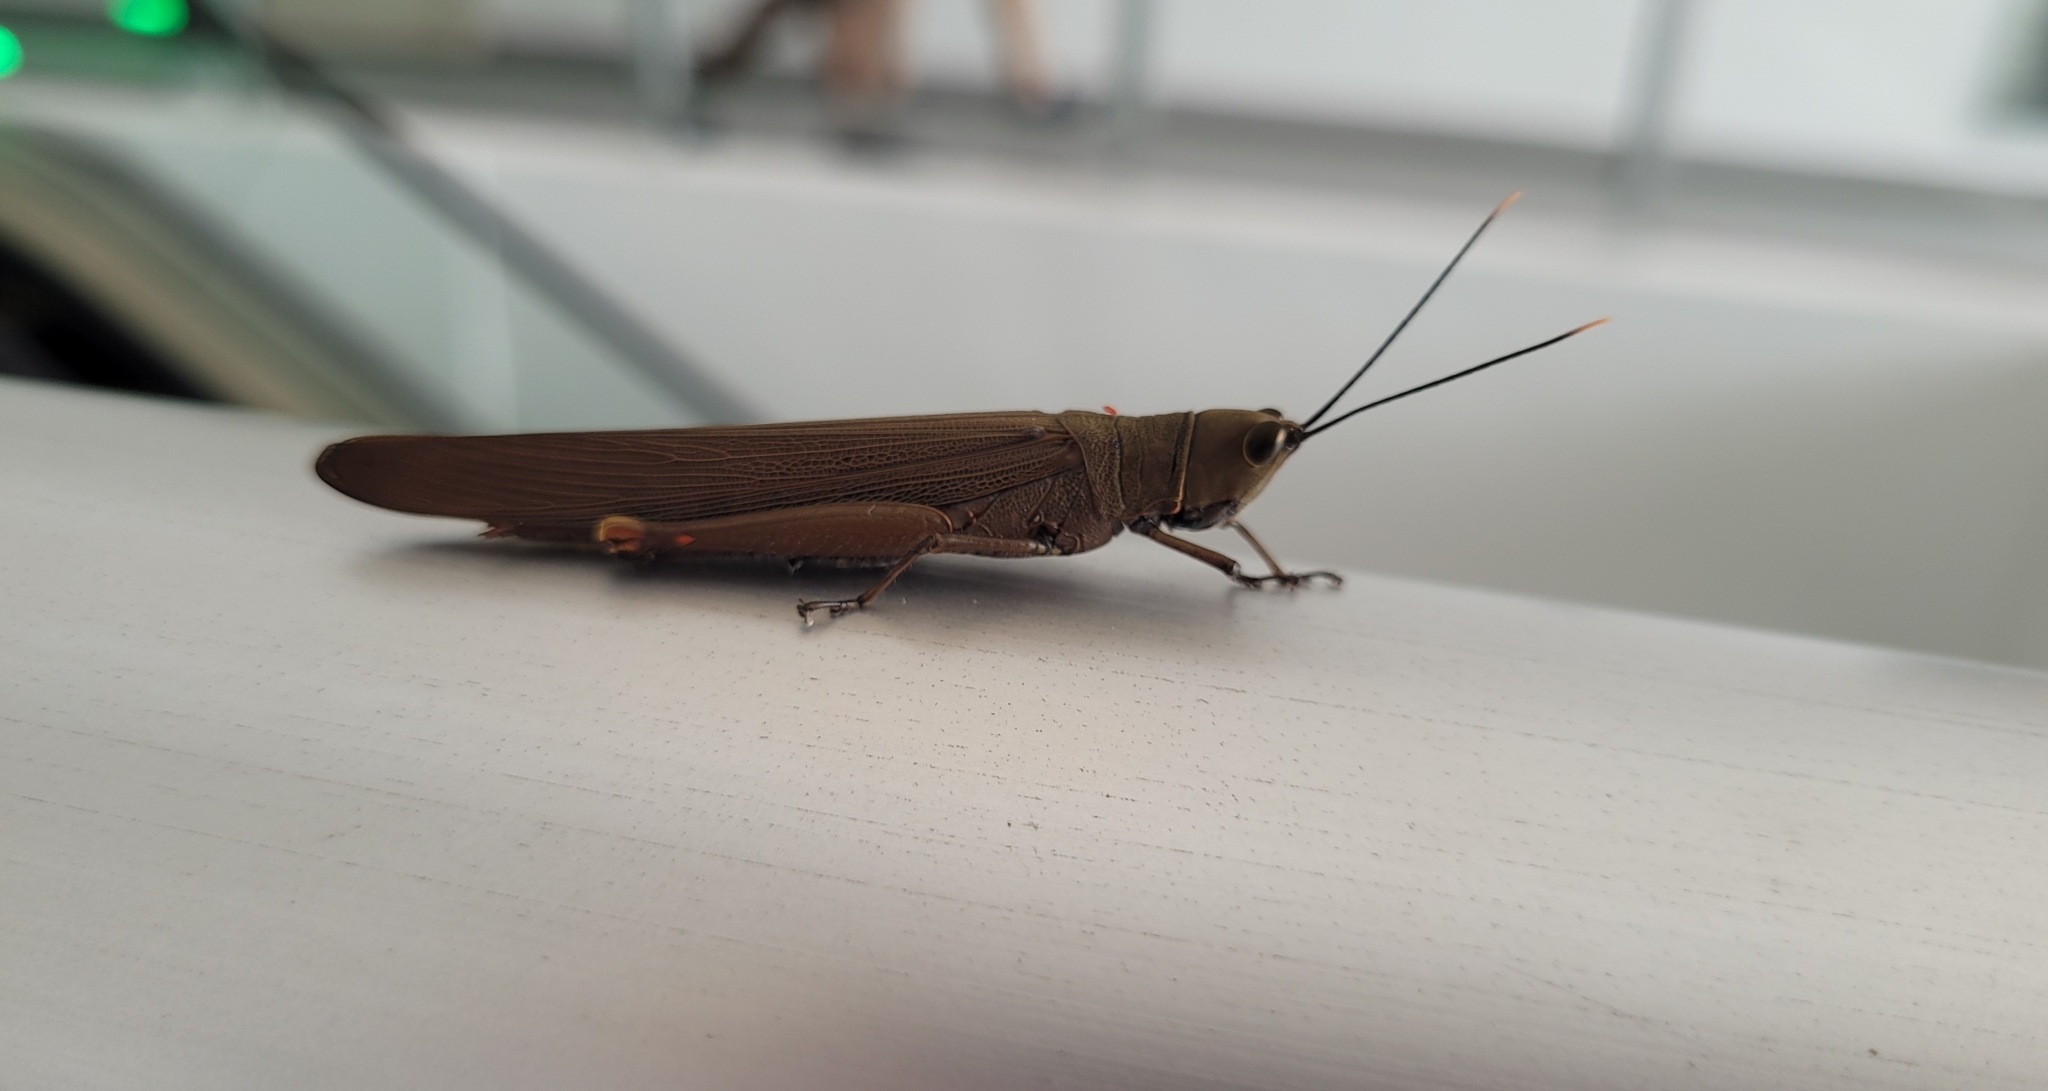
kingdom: Animalia
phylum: Arthropoda
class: Insecta
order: Orthoptera
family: Acrididae
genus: Copiocera
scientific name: Copiocera specularis
